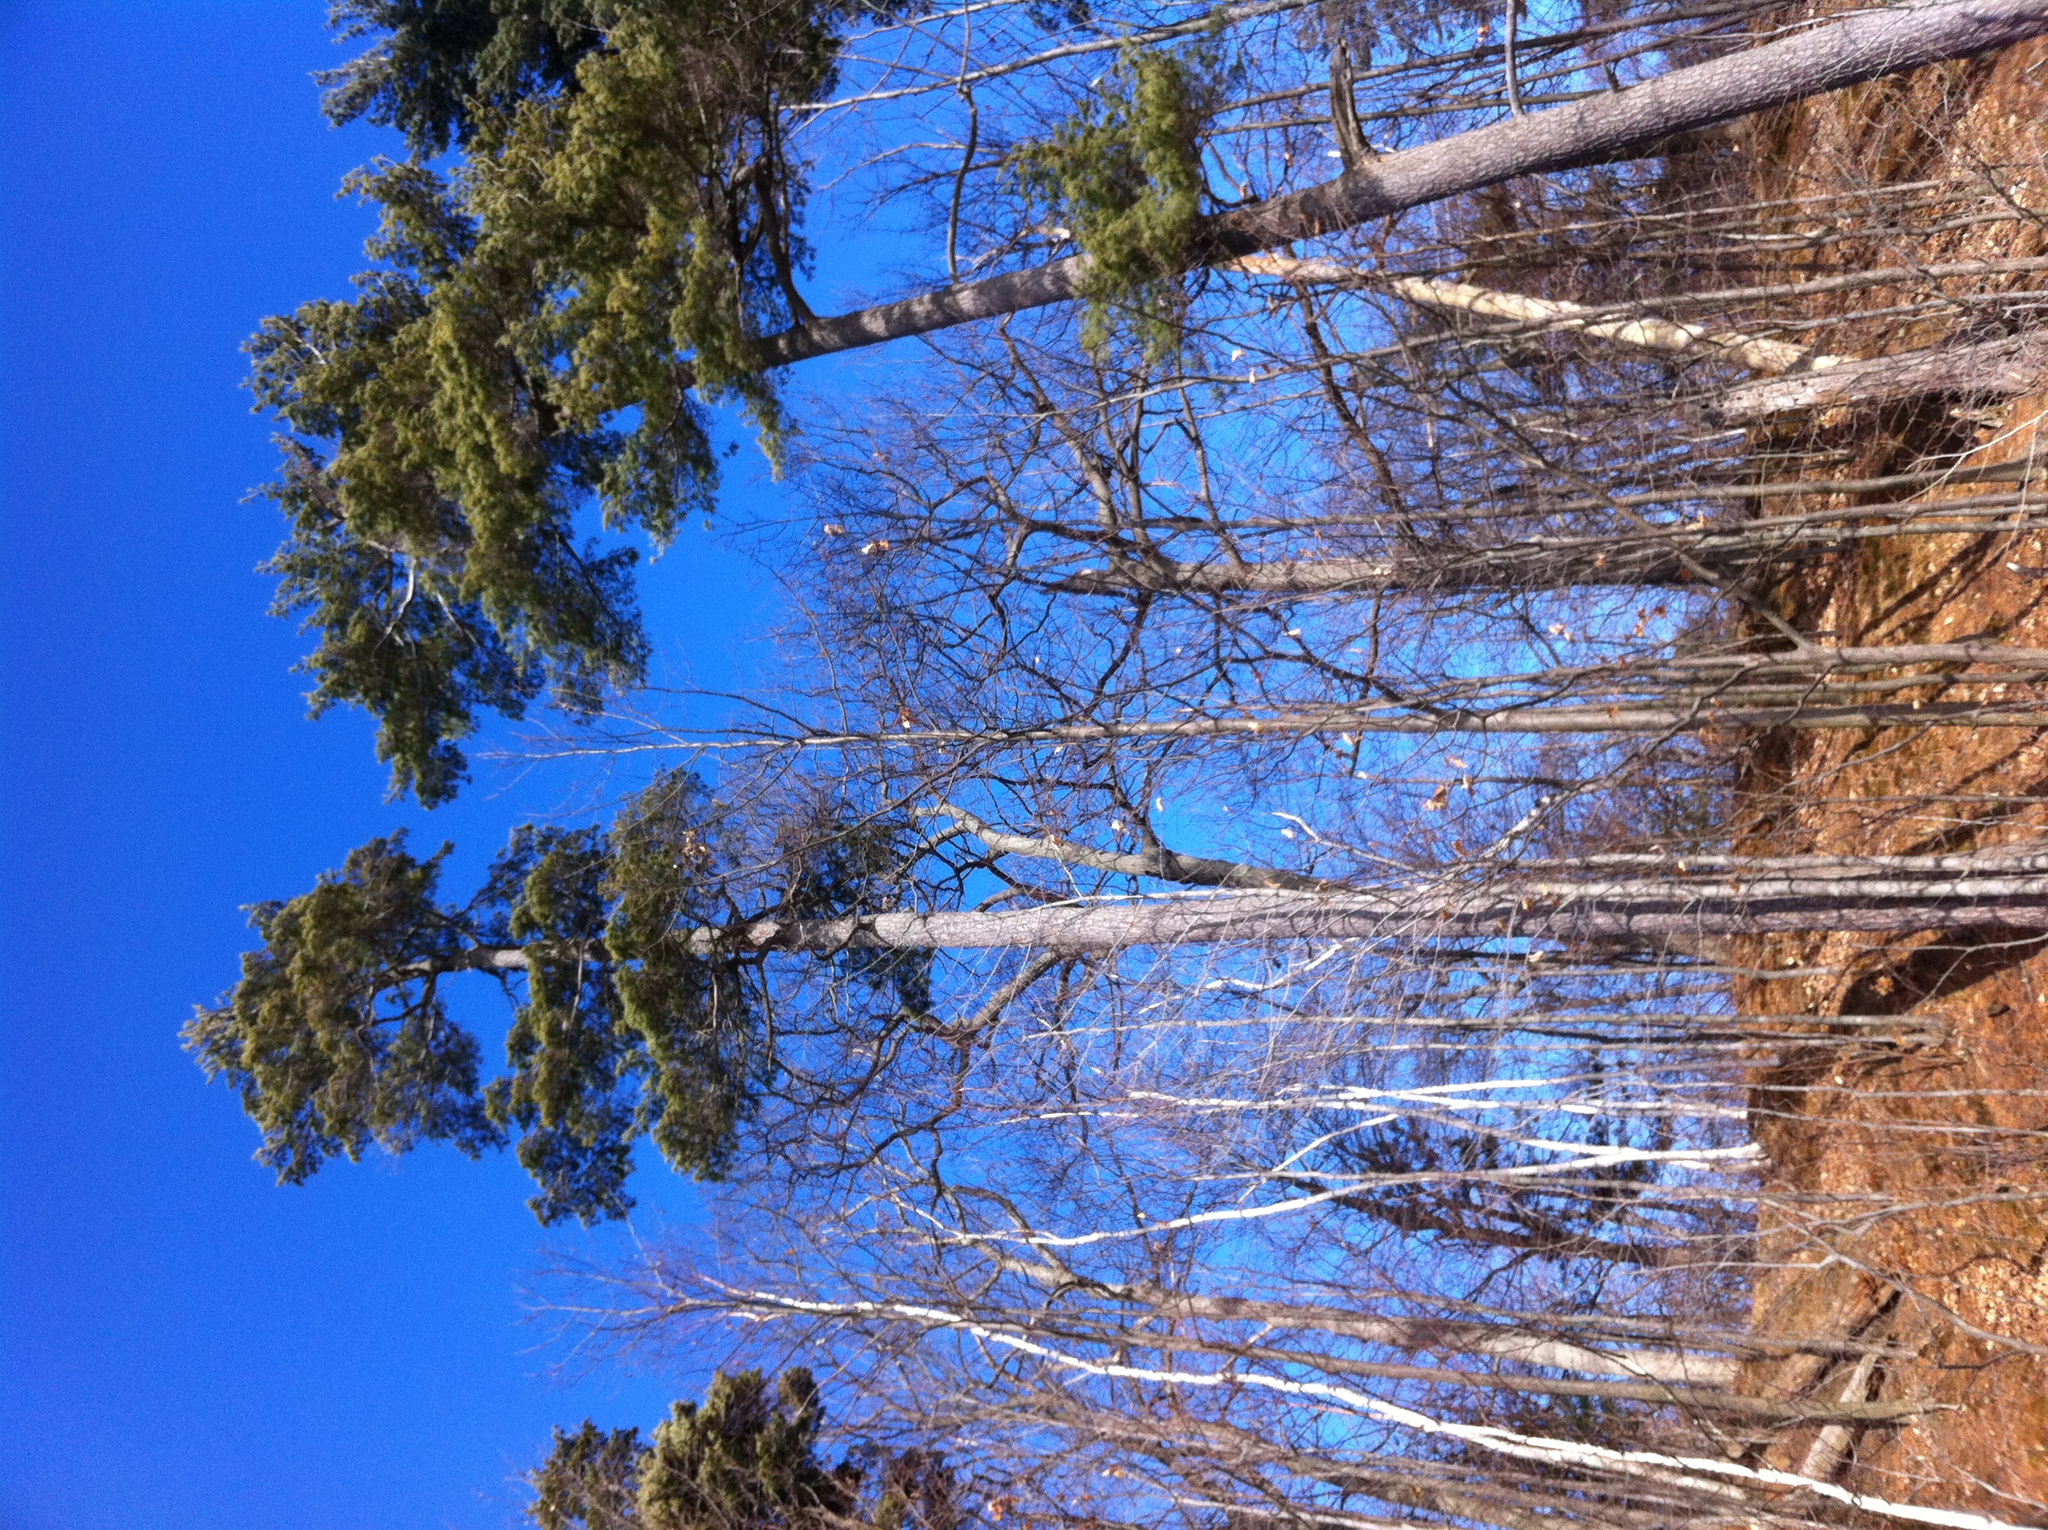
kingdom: Plantae
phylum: Tracheophyta
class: Pinopsida
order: Pinales
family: Pinaceae
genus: Pinus
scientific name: Pinus strobus
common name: Weymouth pine
